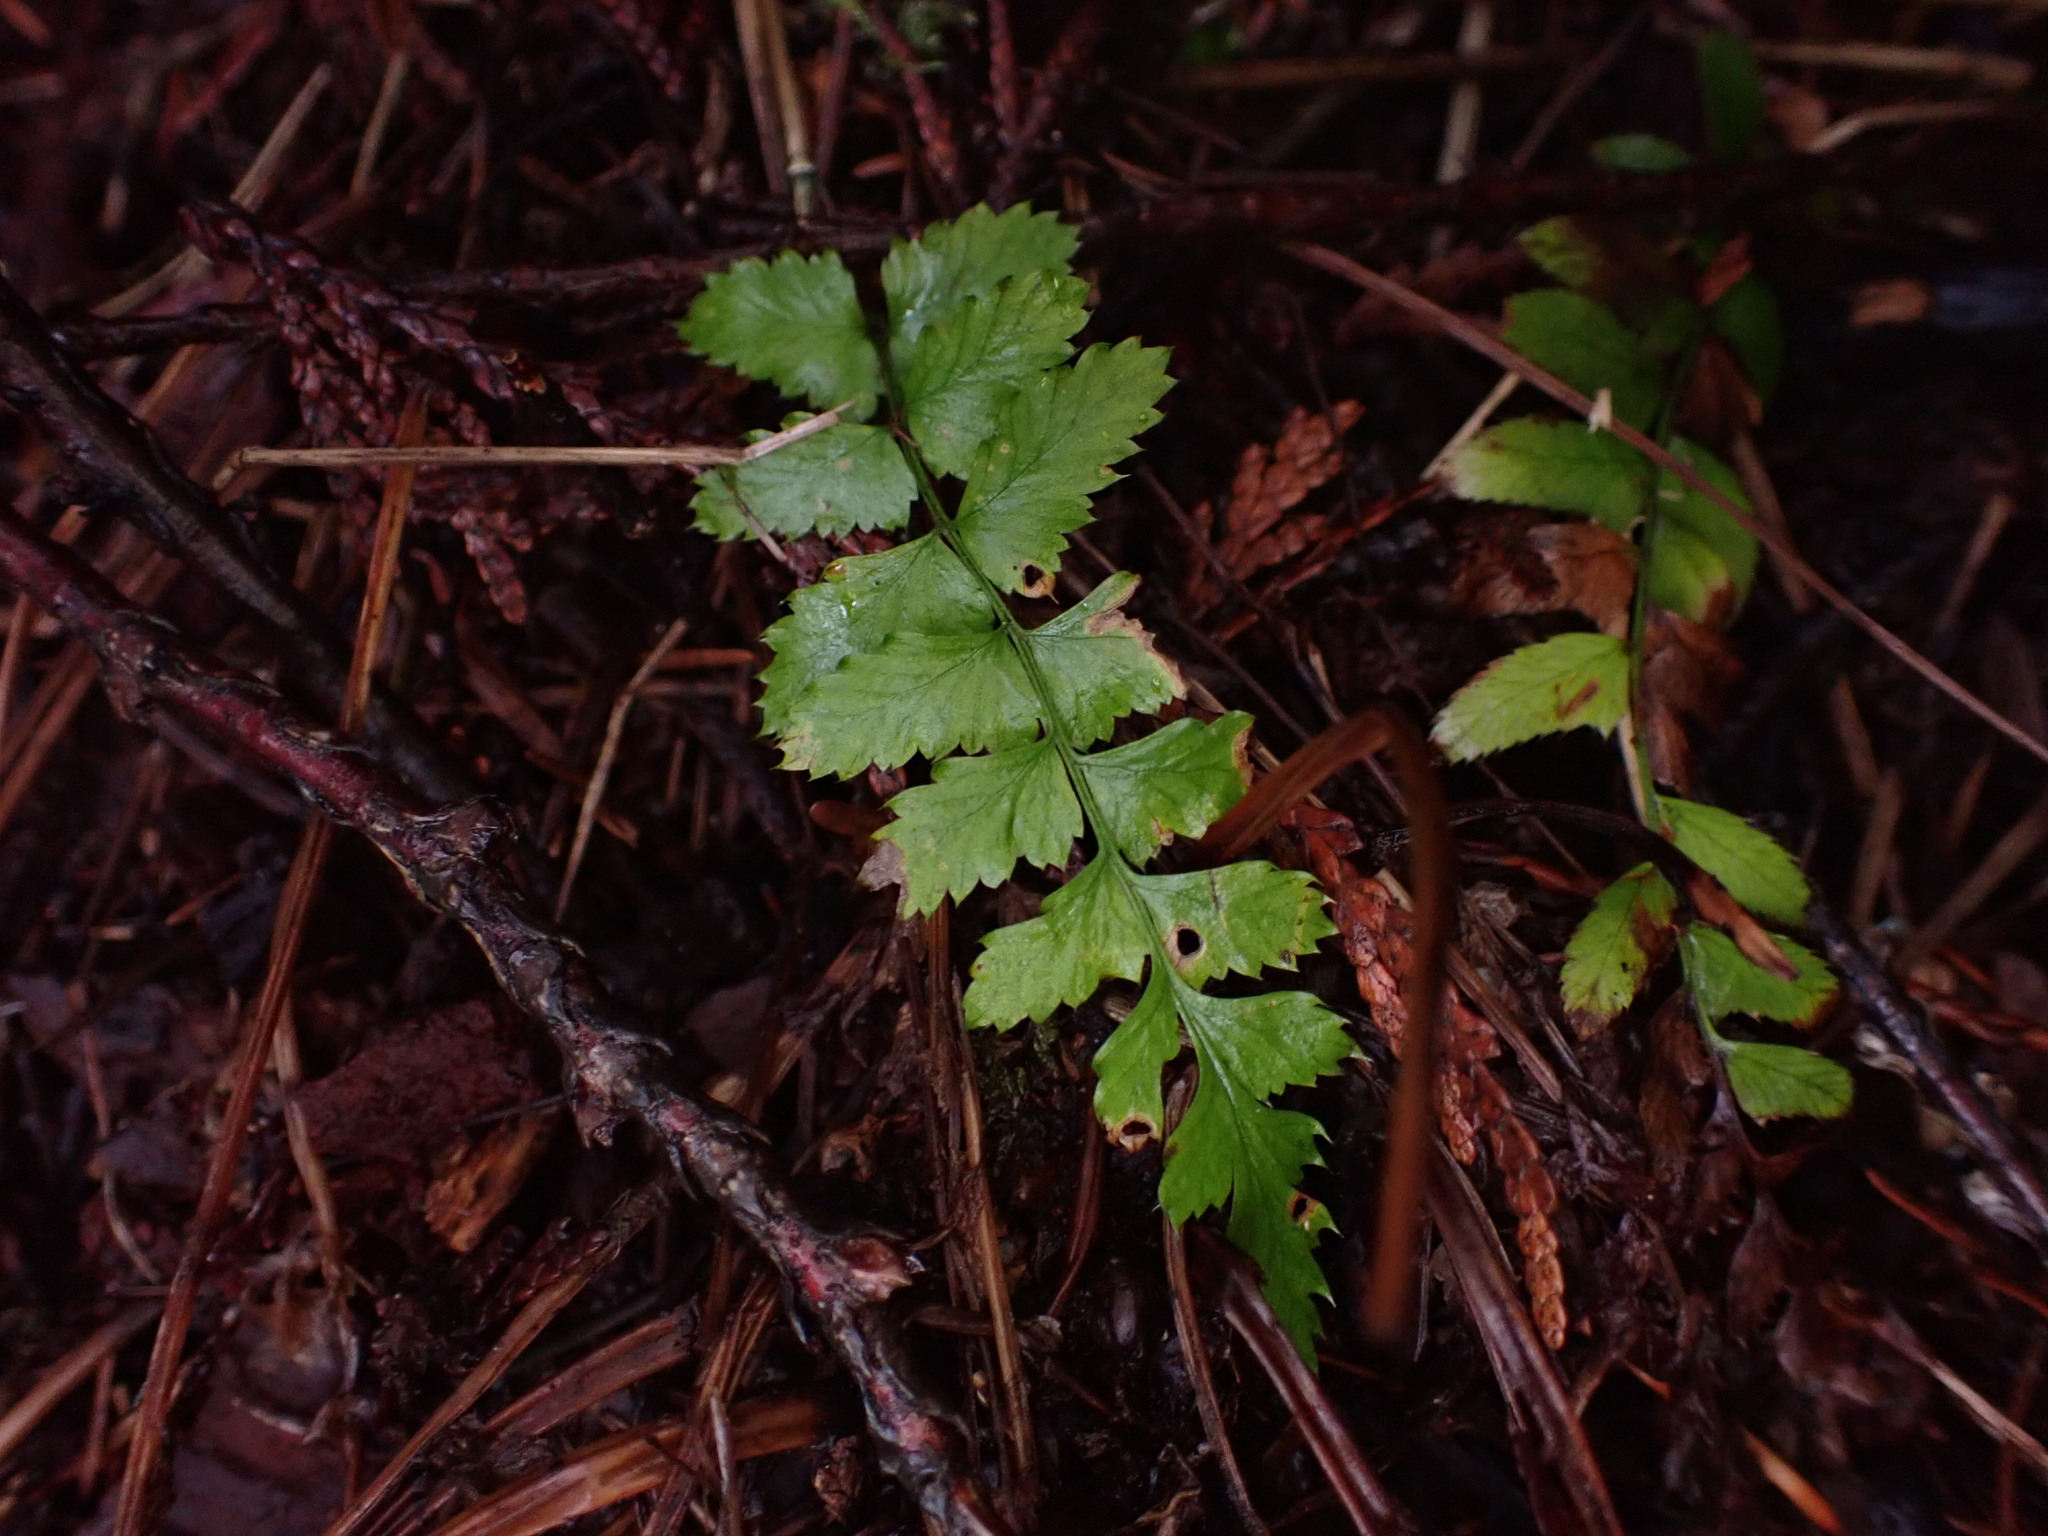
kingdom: Plantae
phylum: Tracheophyta
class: Polypodiopsida
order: Polypodiales
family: Dryopteridaceae
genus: Polystichum
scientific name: Polystichum munitum
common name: Western sword-fern
